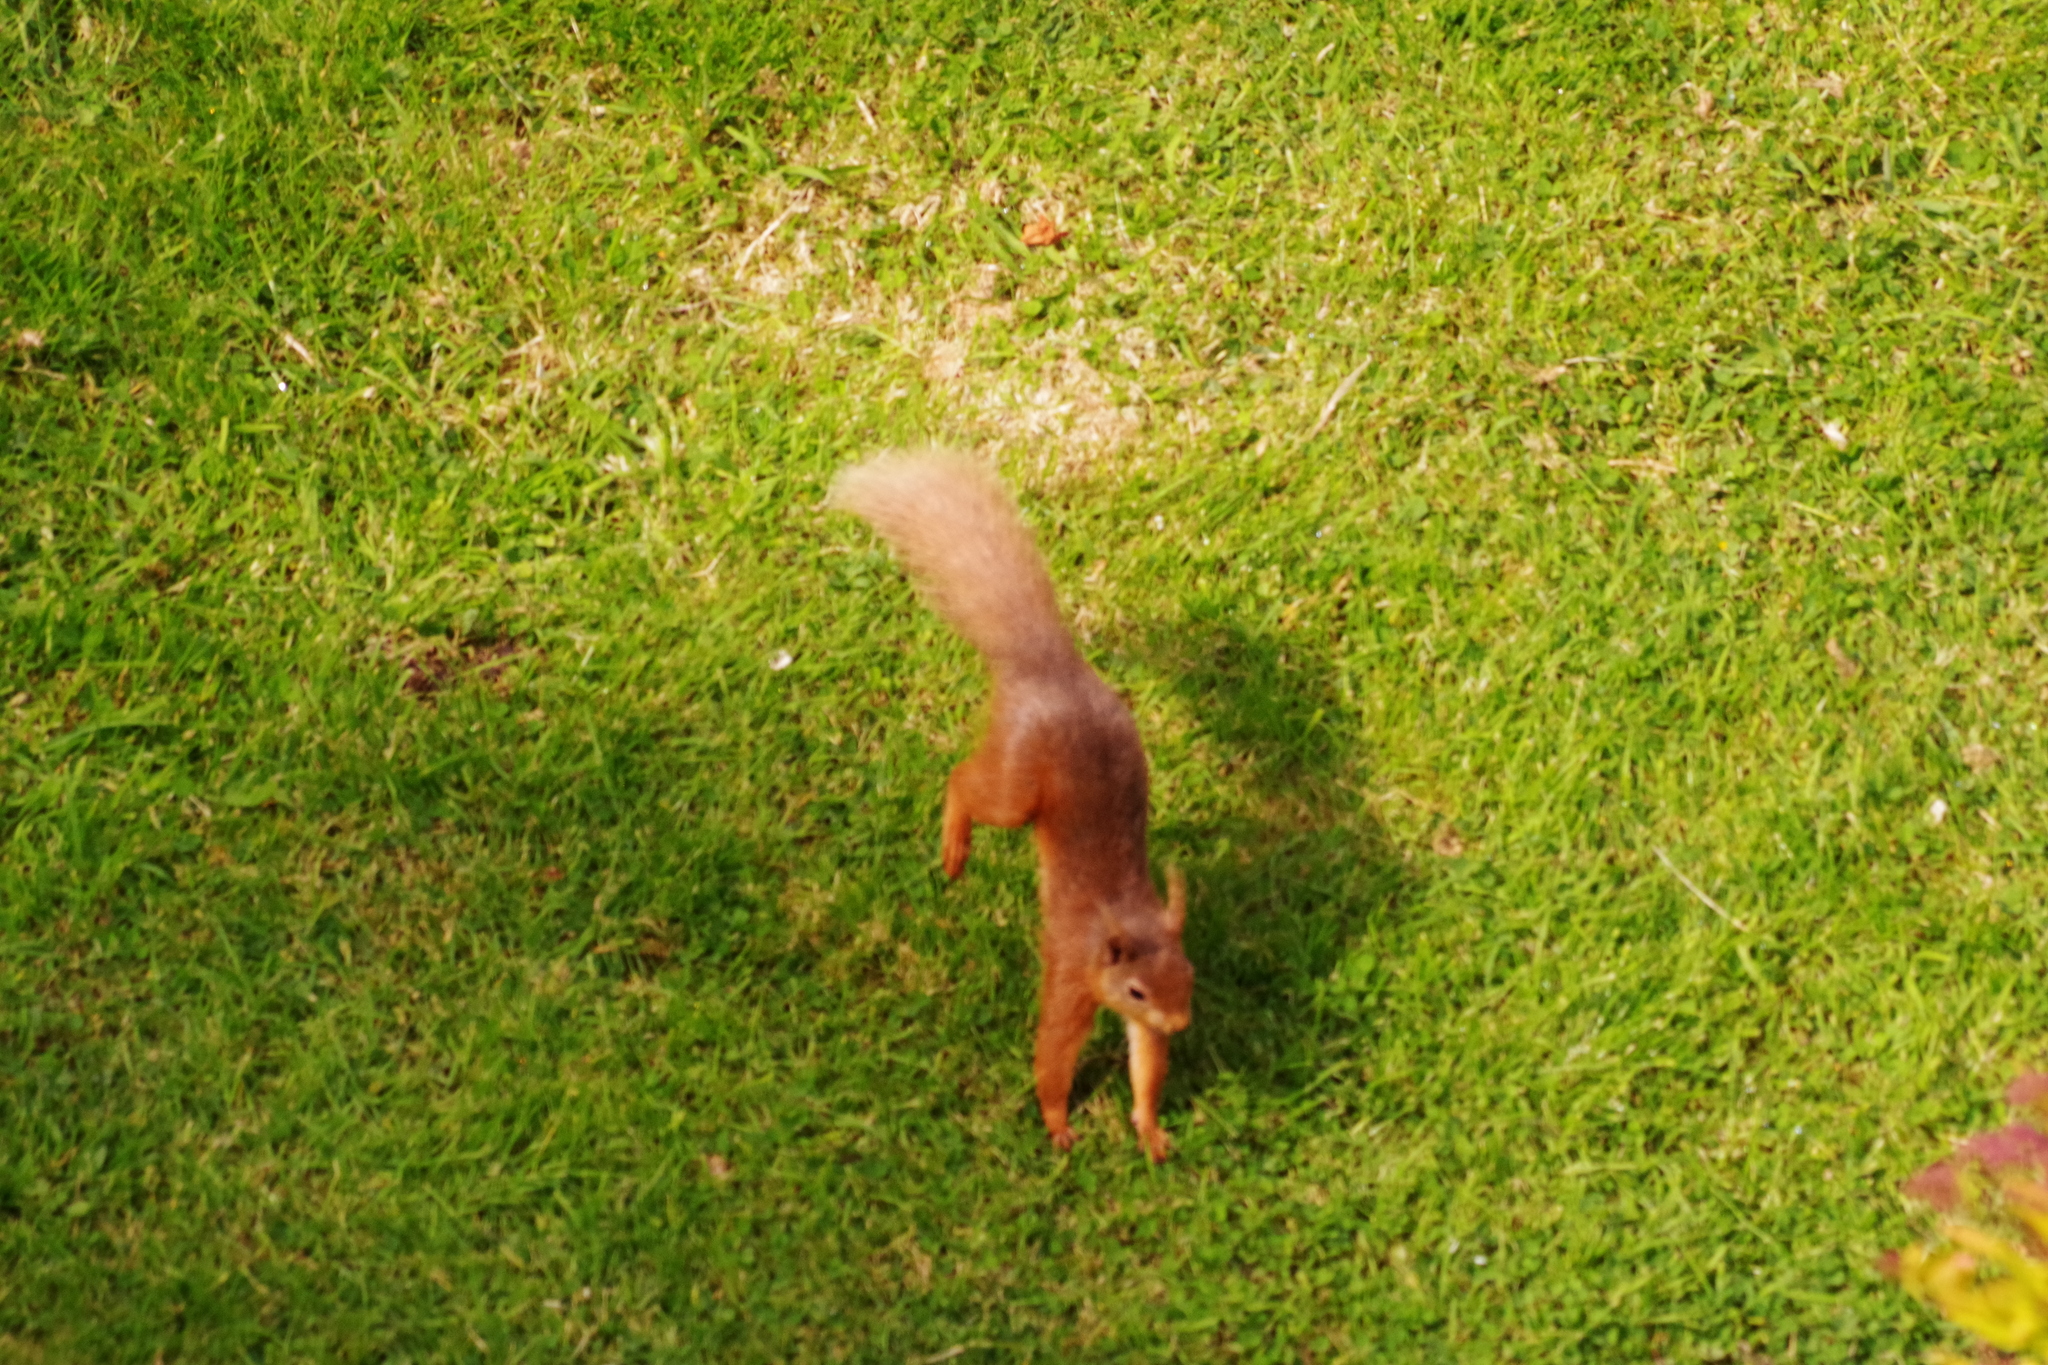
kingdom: Animalia
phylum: Chordata
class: Mammalia
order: Rodentia
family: Sciuridae
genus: Sciurus
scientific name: Sciurus vulgaris
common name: Eurasian red squirrel
